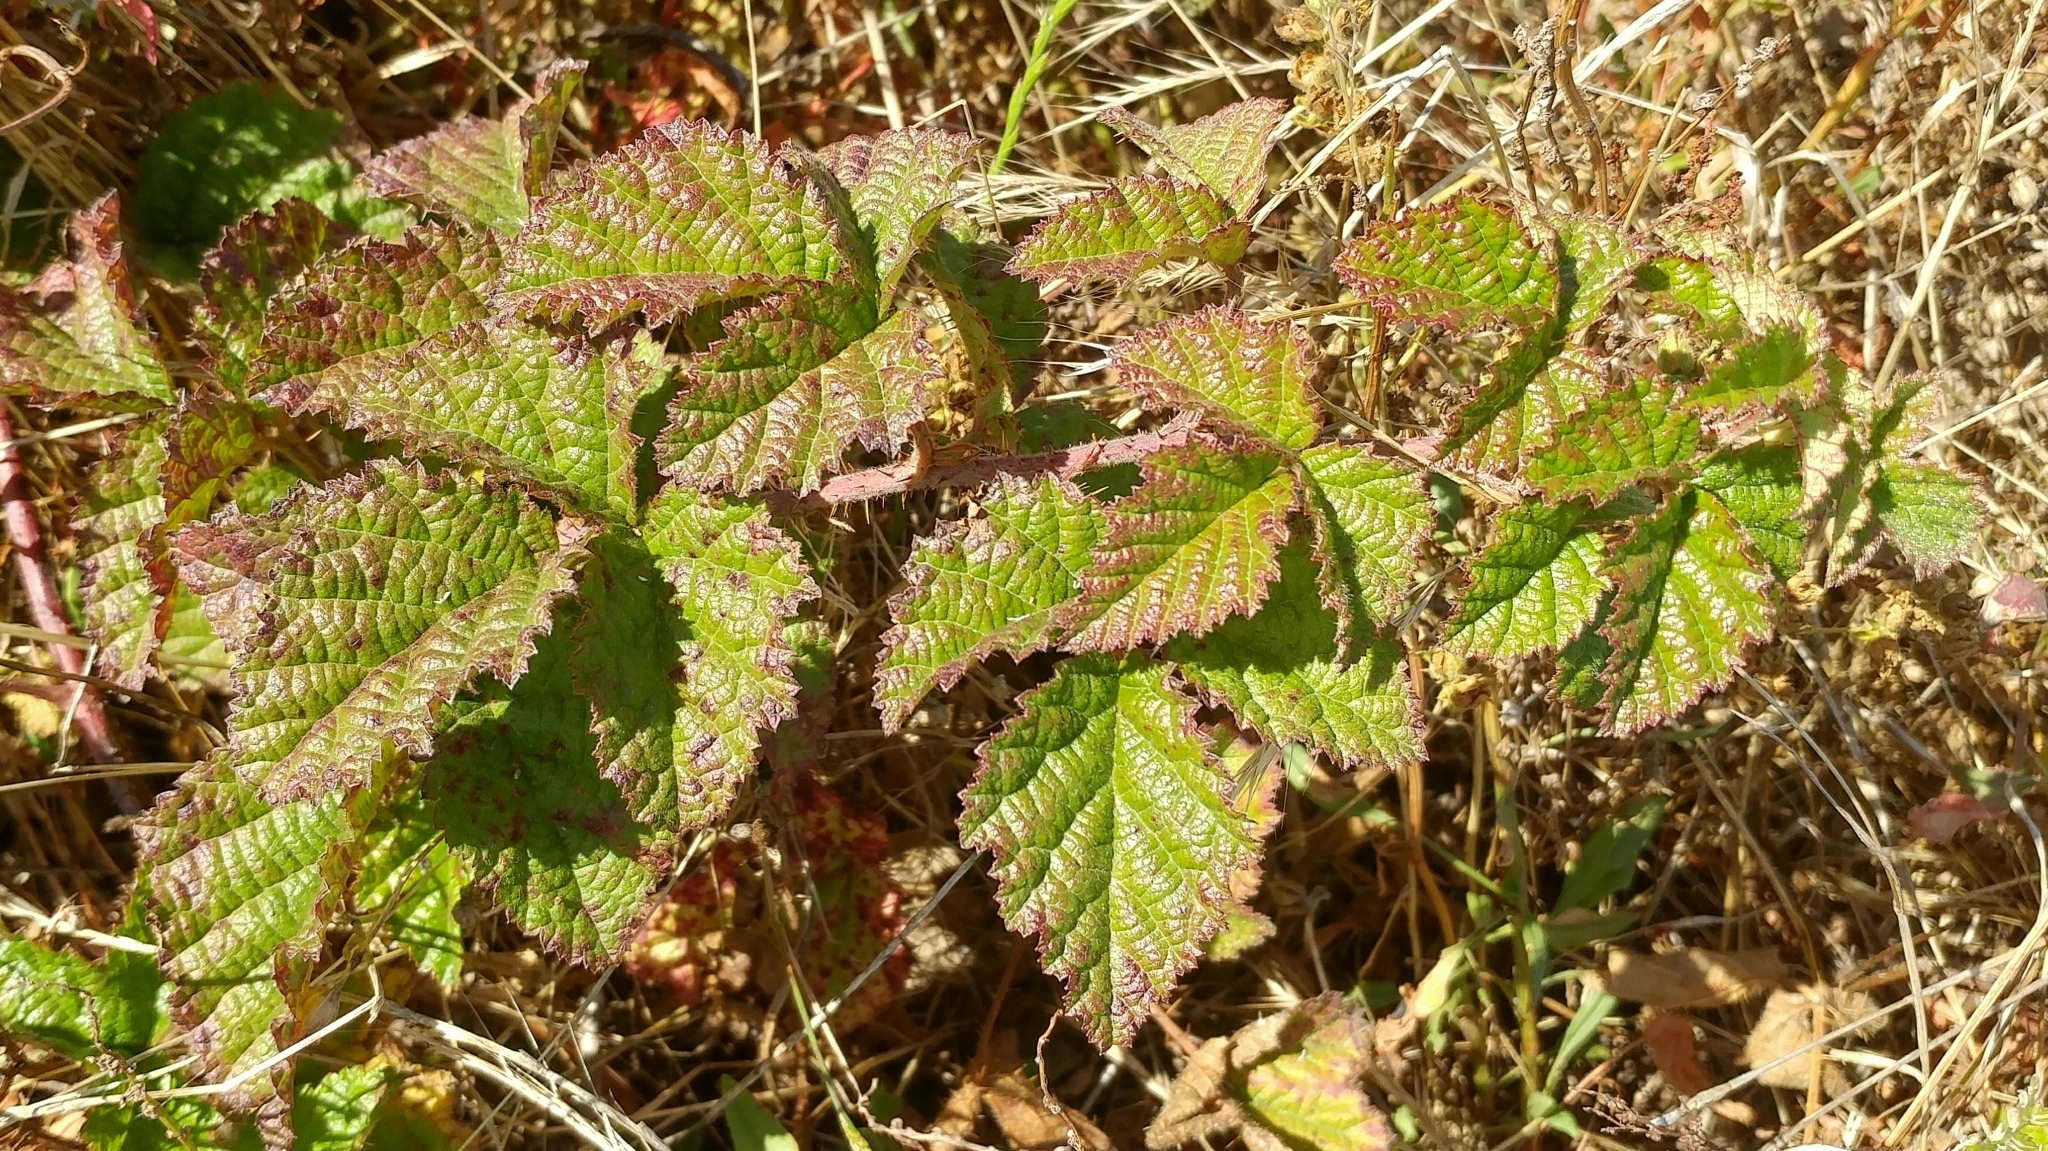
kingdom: Plantae
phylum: Tracheophyta
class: Magnoliopsida
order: Rosales
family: Rosaceae
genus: Rubus
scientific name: Rubus ursinus
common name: Pacific blackberry
